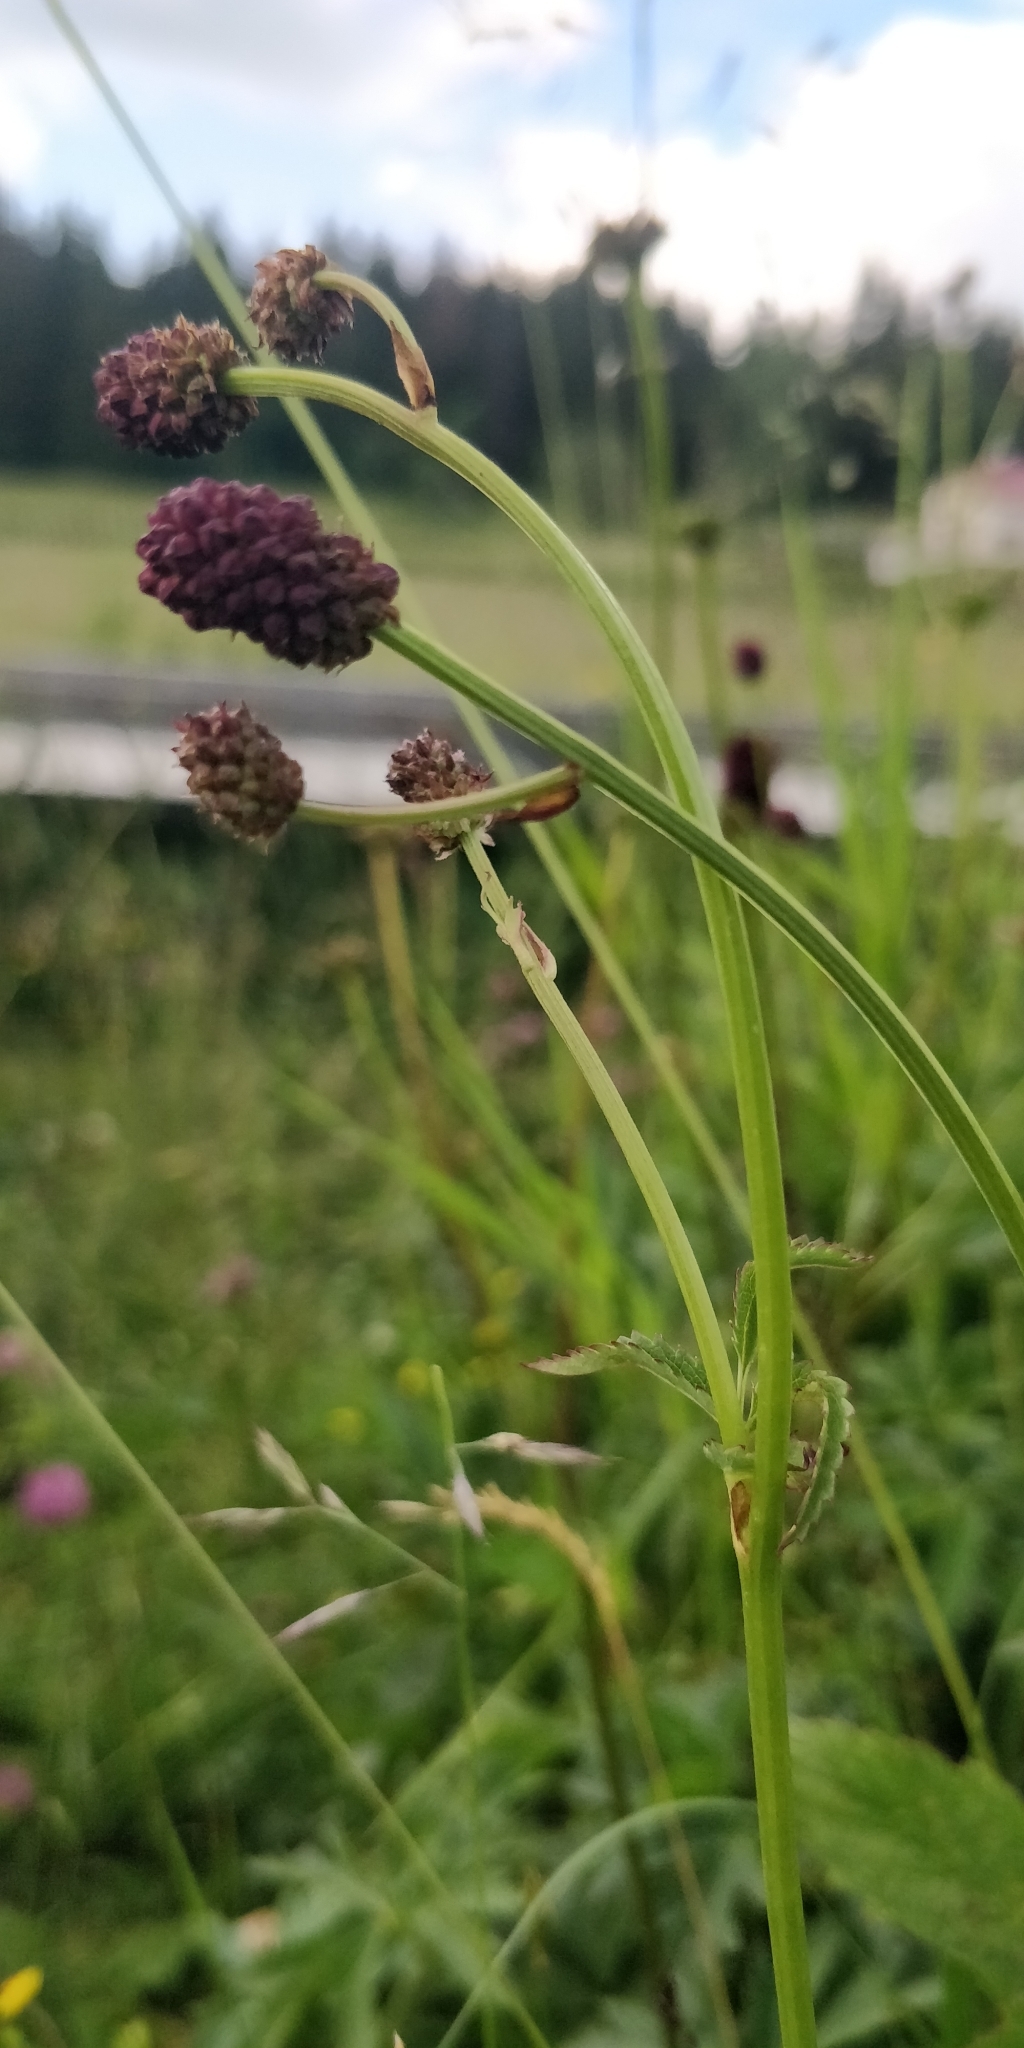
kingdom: Plantae
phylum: Tracheophyta
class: Magnoliopsida
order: Rosales
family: Rosaceae
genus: Sanguisorba
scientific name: Sanguisorba officinalis
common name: Great burnet
